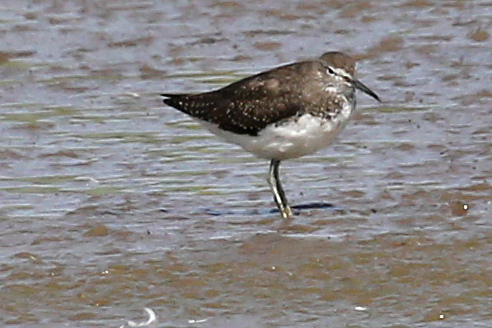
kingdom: Animalia
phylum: Chordata
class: Aves
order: Charadriiformes
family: Scolopacidae
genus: Tringa
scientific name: Tringa ochropus
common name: Green sandpiper
